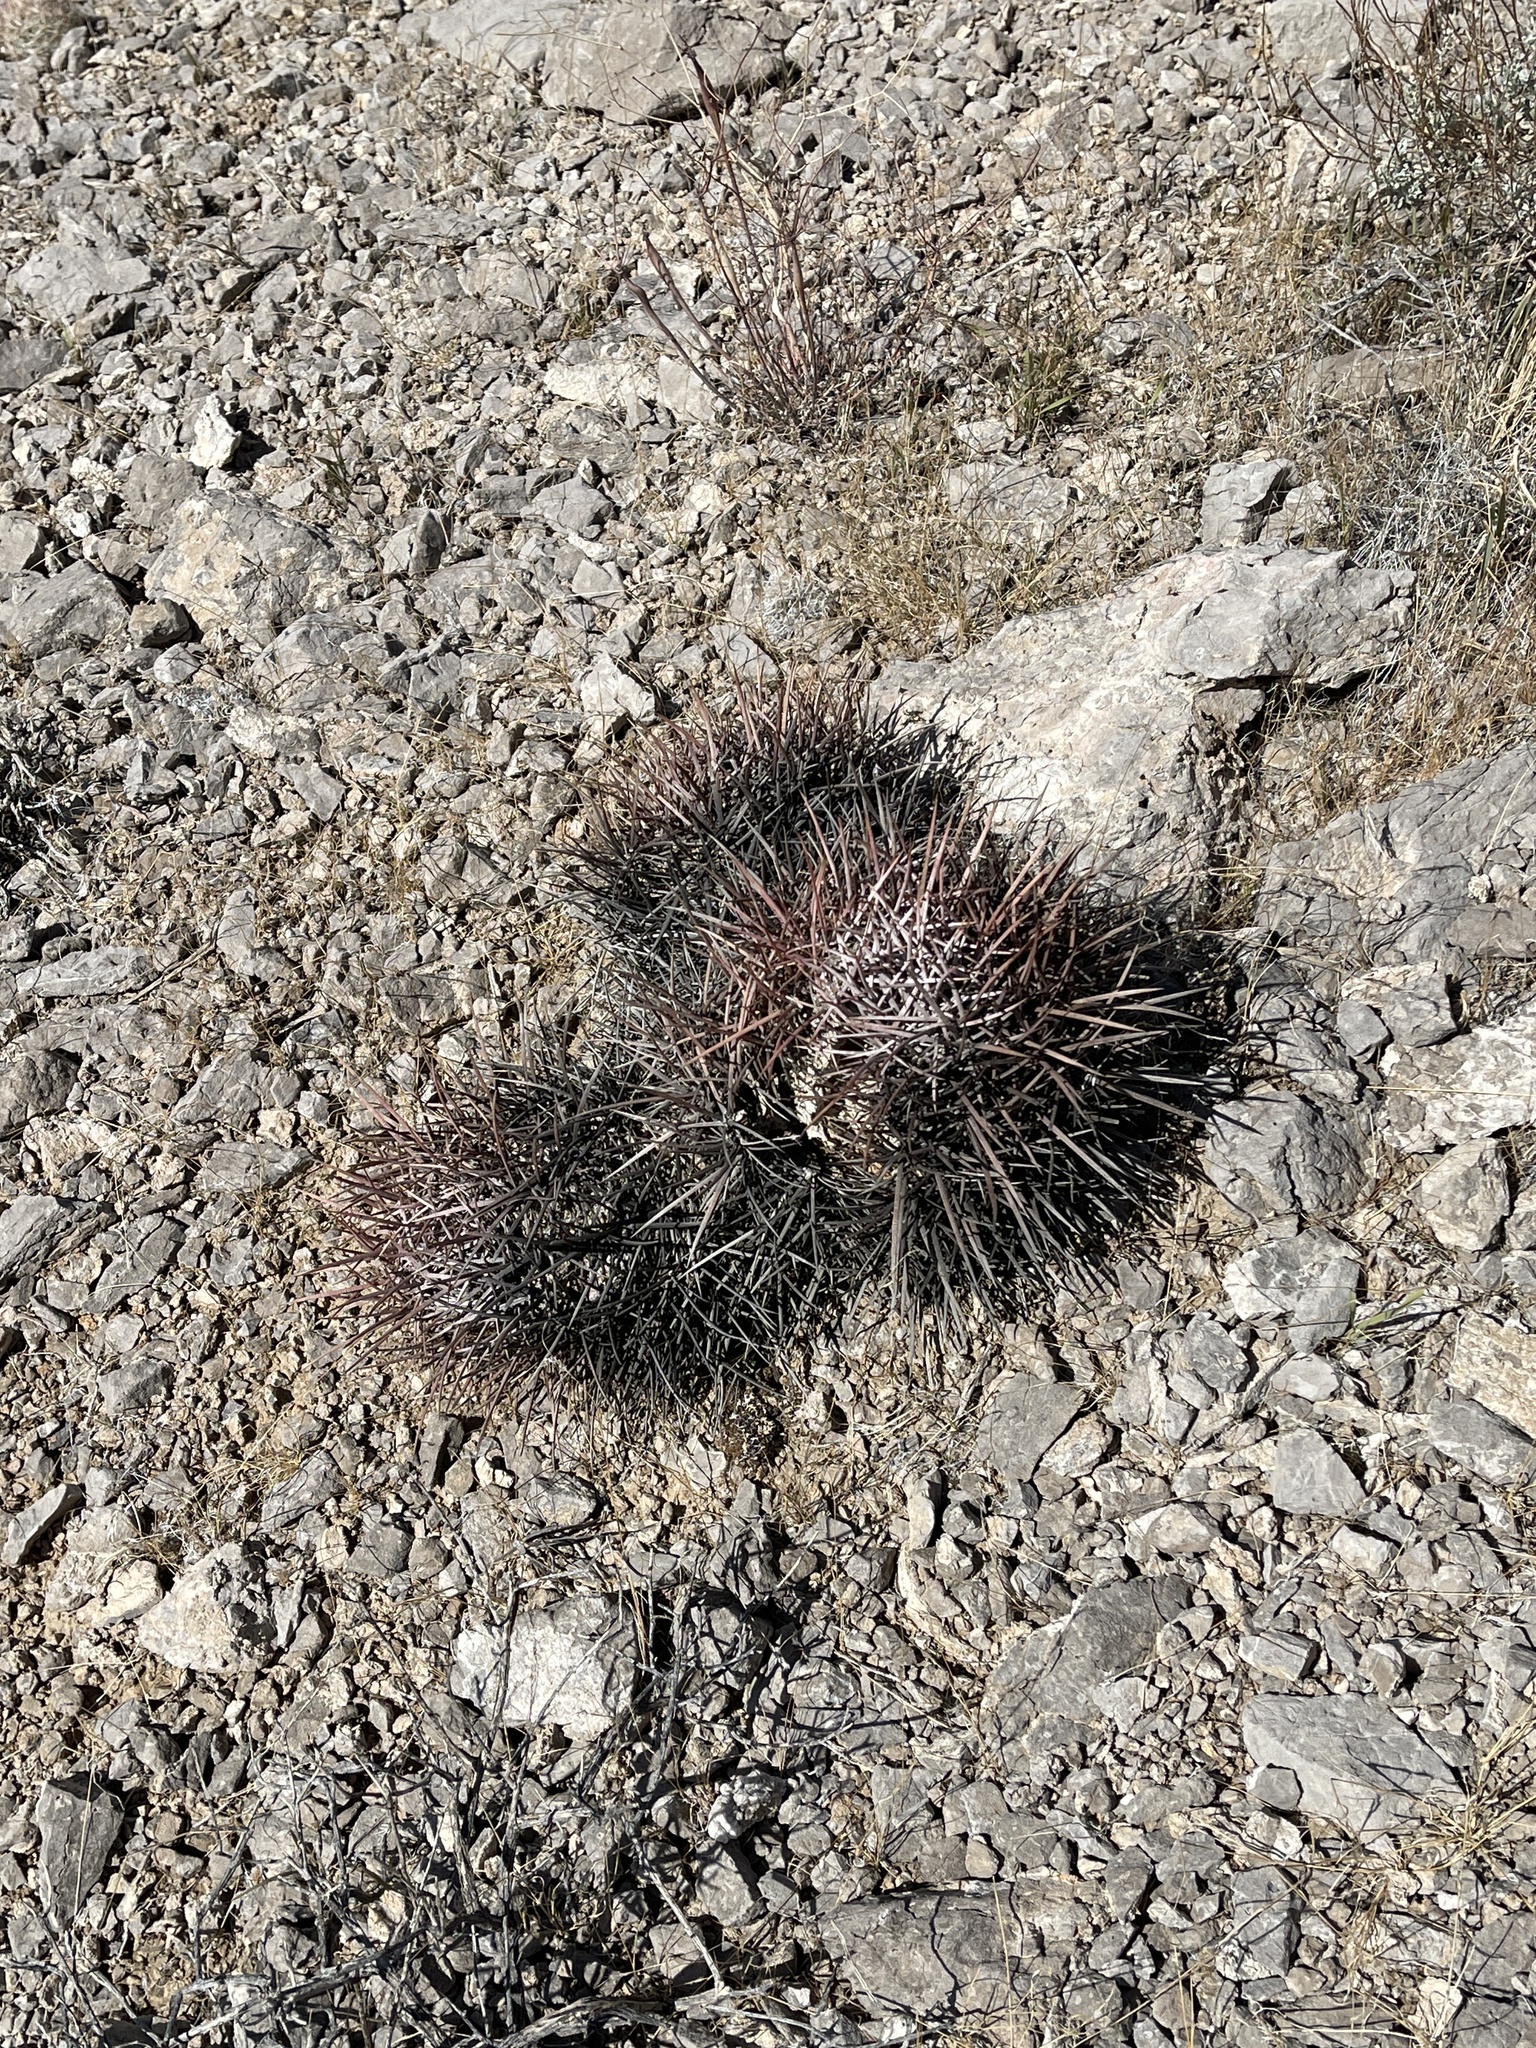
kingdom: Plantae
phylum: Tracheophyta
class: Magnoliopsida
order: Caryophyllales
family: Cactaceae
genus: Echinocactus
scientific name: Echinocactus polycephalus
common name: Cottontop cactus
